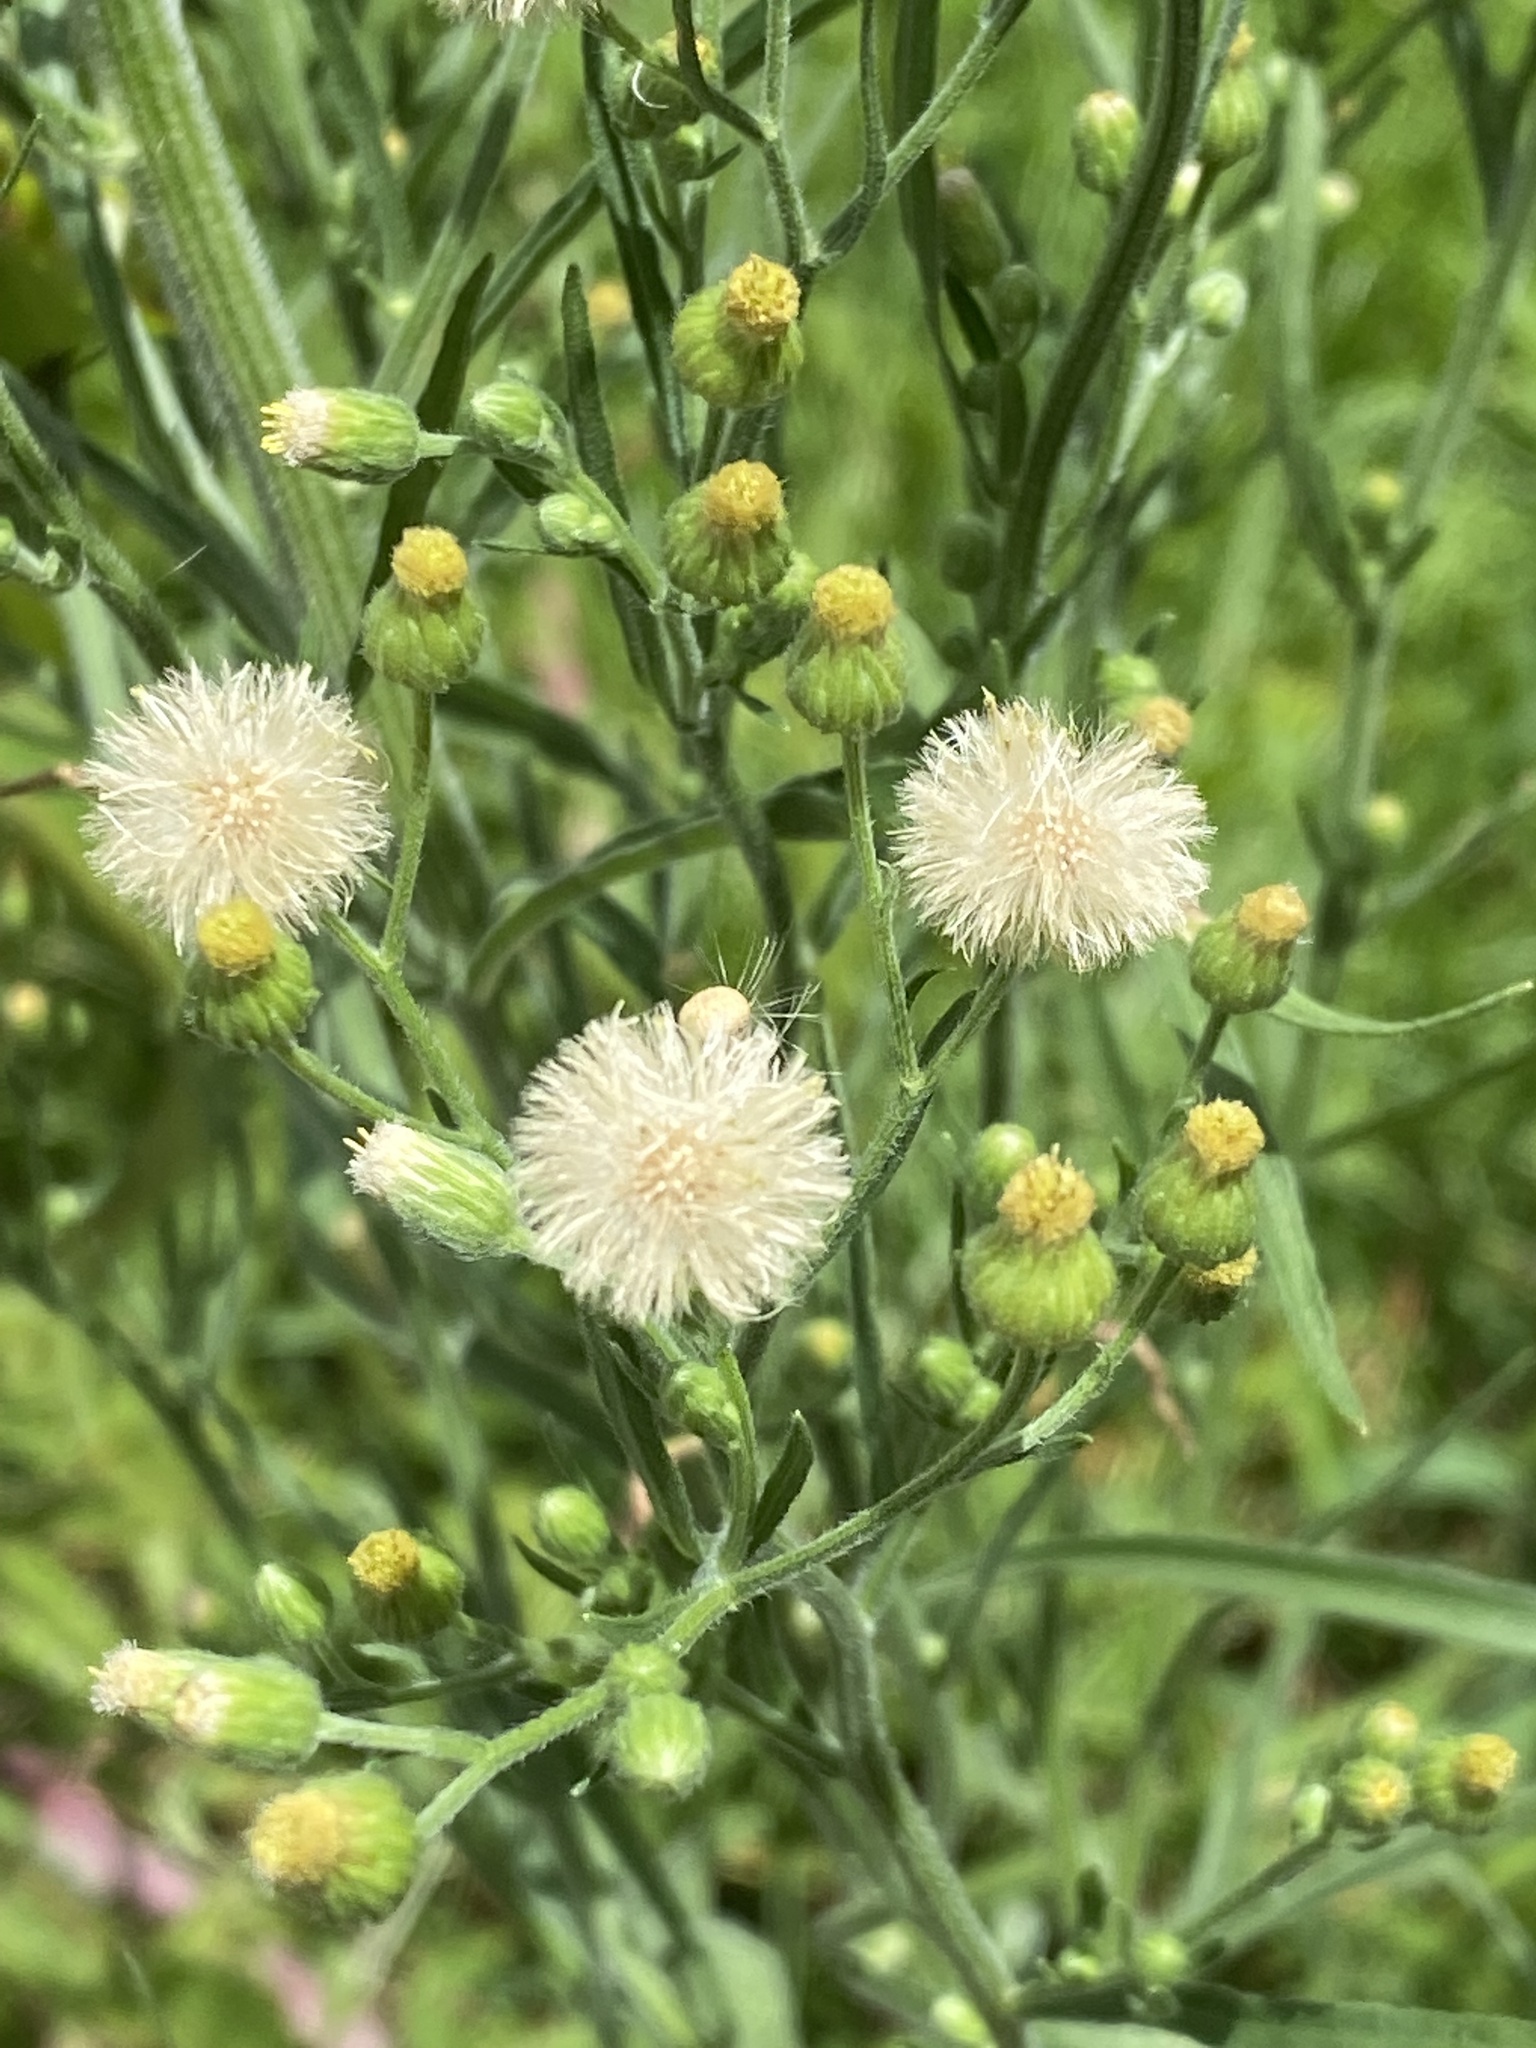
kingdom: Plantae
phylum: Tracheophyta
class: Magnoliopsida
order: Asterales
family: Asteraceae
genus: Erigeron
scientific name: Erigeron bonariensis
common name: Argentine fleabane
